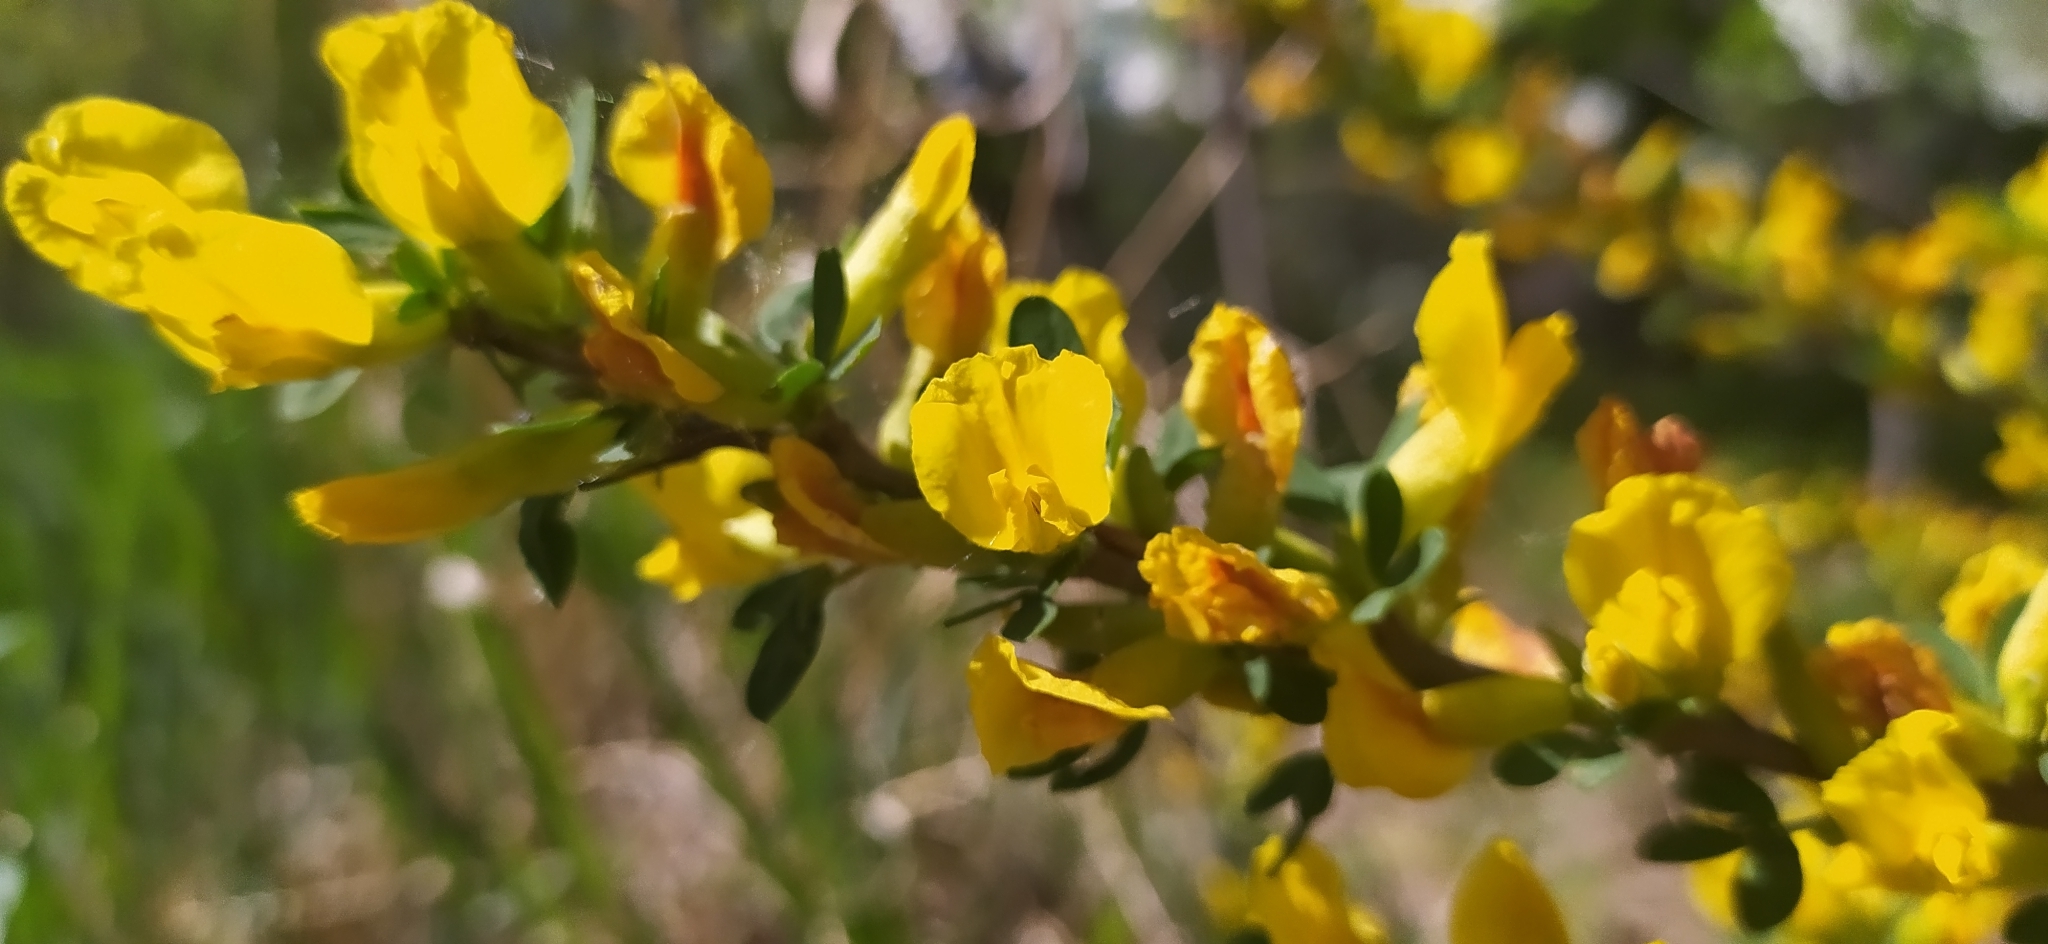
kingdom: Plantae
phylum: Tracheophyta
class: Magnoliopsida
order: Fabales
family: Fabaceae
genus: Chamaecytisus
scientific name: Chamaecytisus ruthenicus
